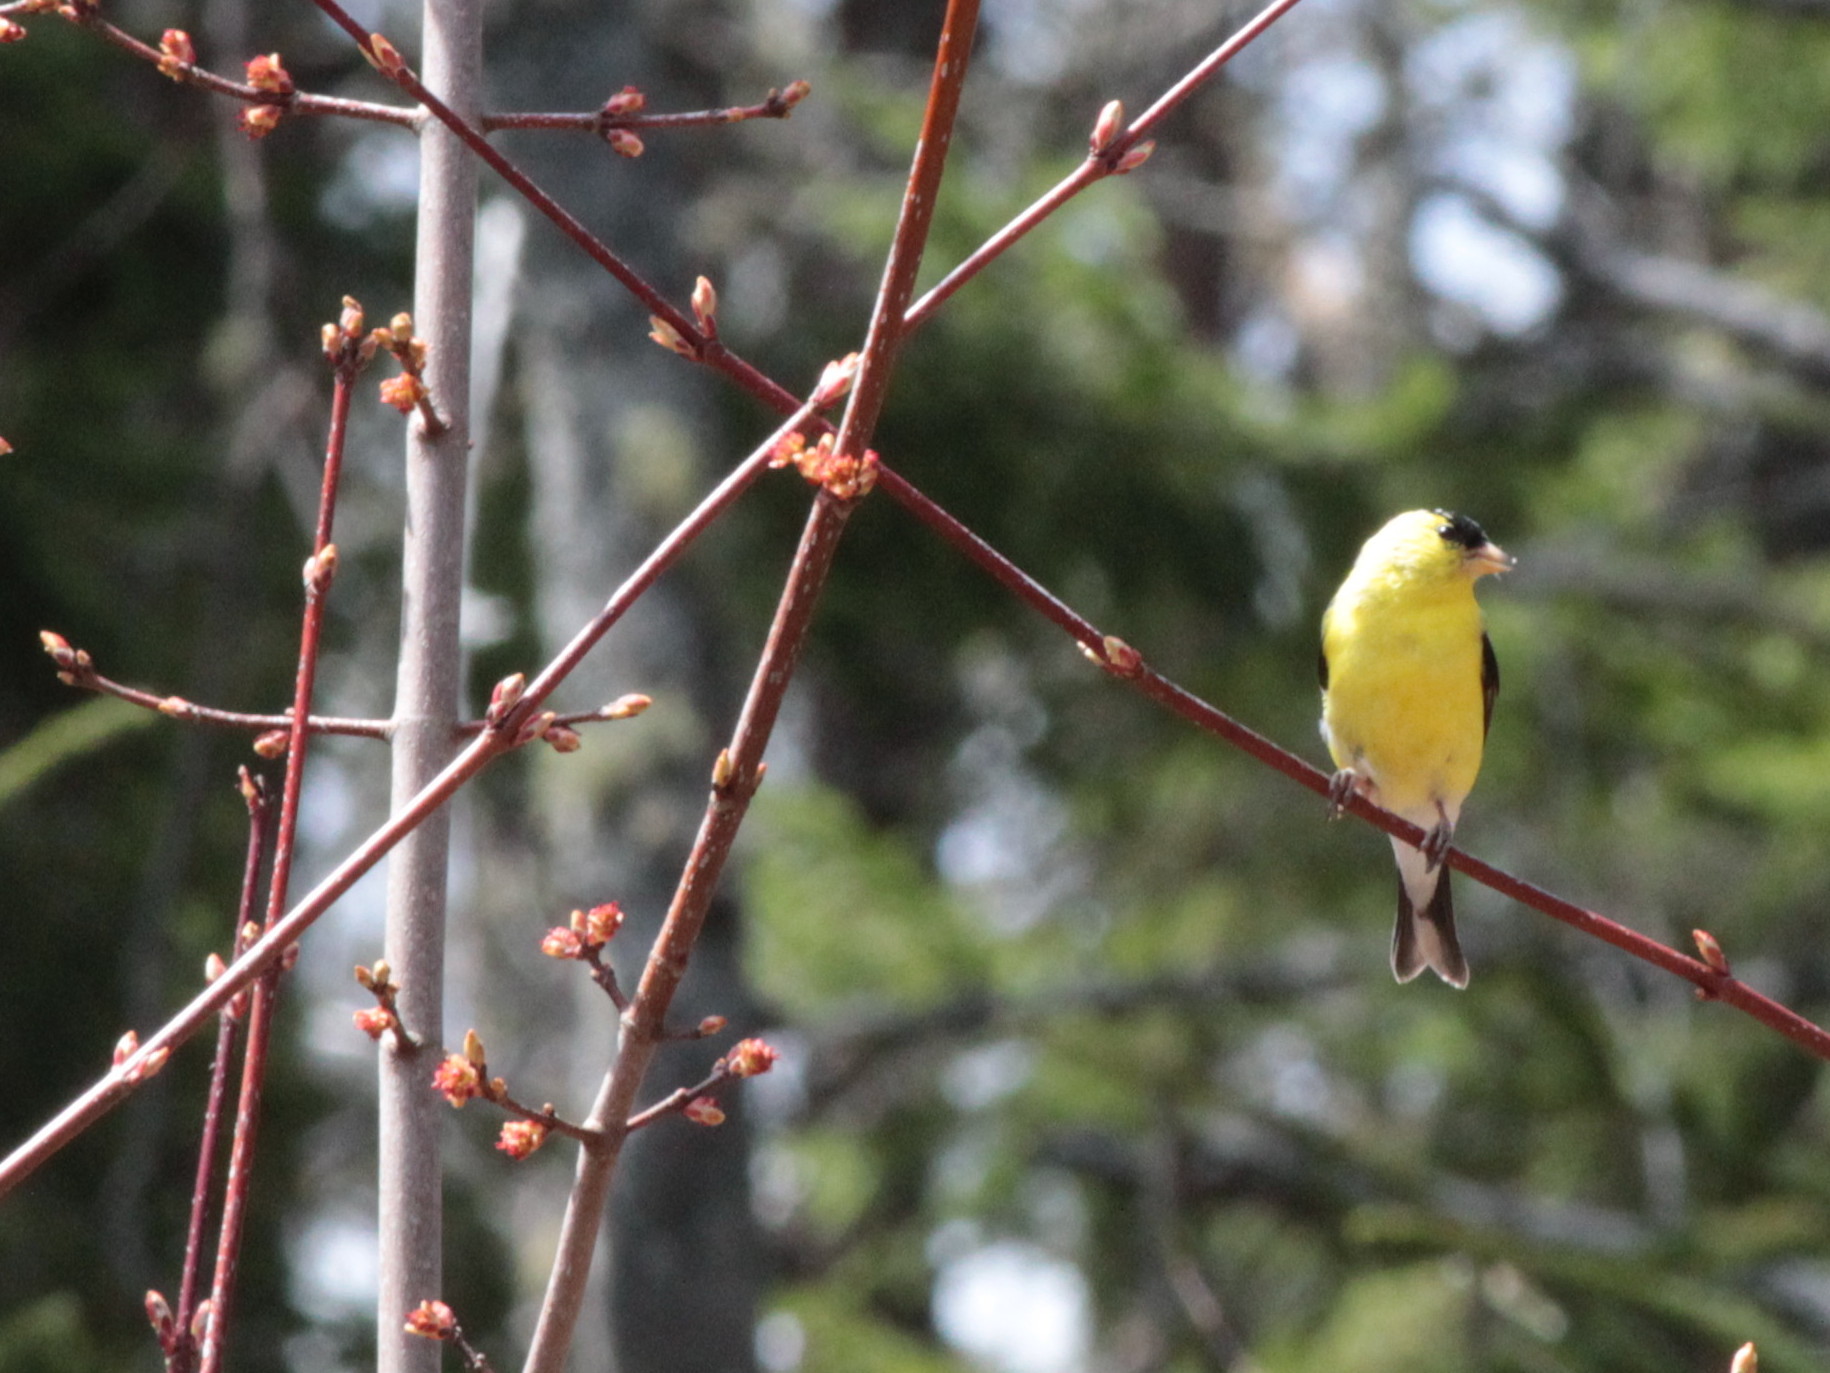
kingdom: Animalia
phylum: Chordata
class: Aves
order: Passeriformes
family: Fringillidae
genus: Spinus
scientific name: Spinus tristis
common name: American goldfinch
